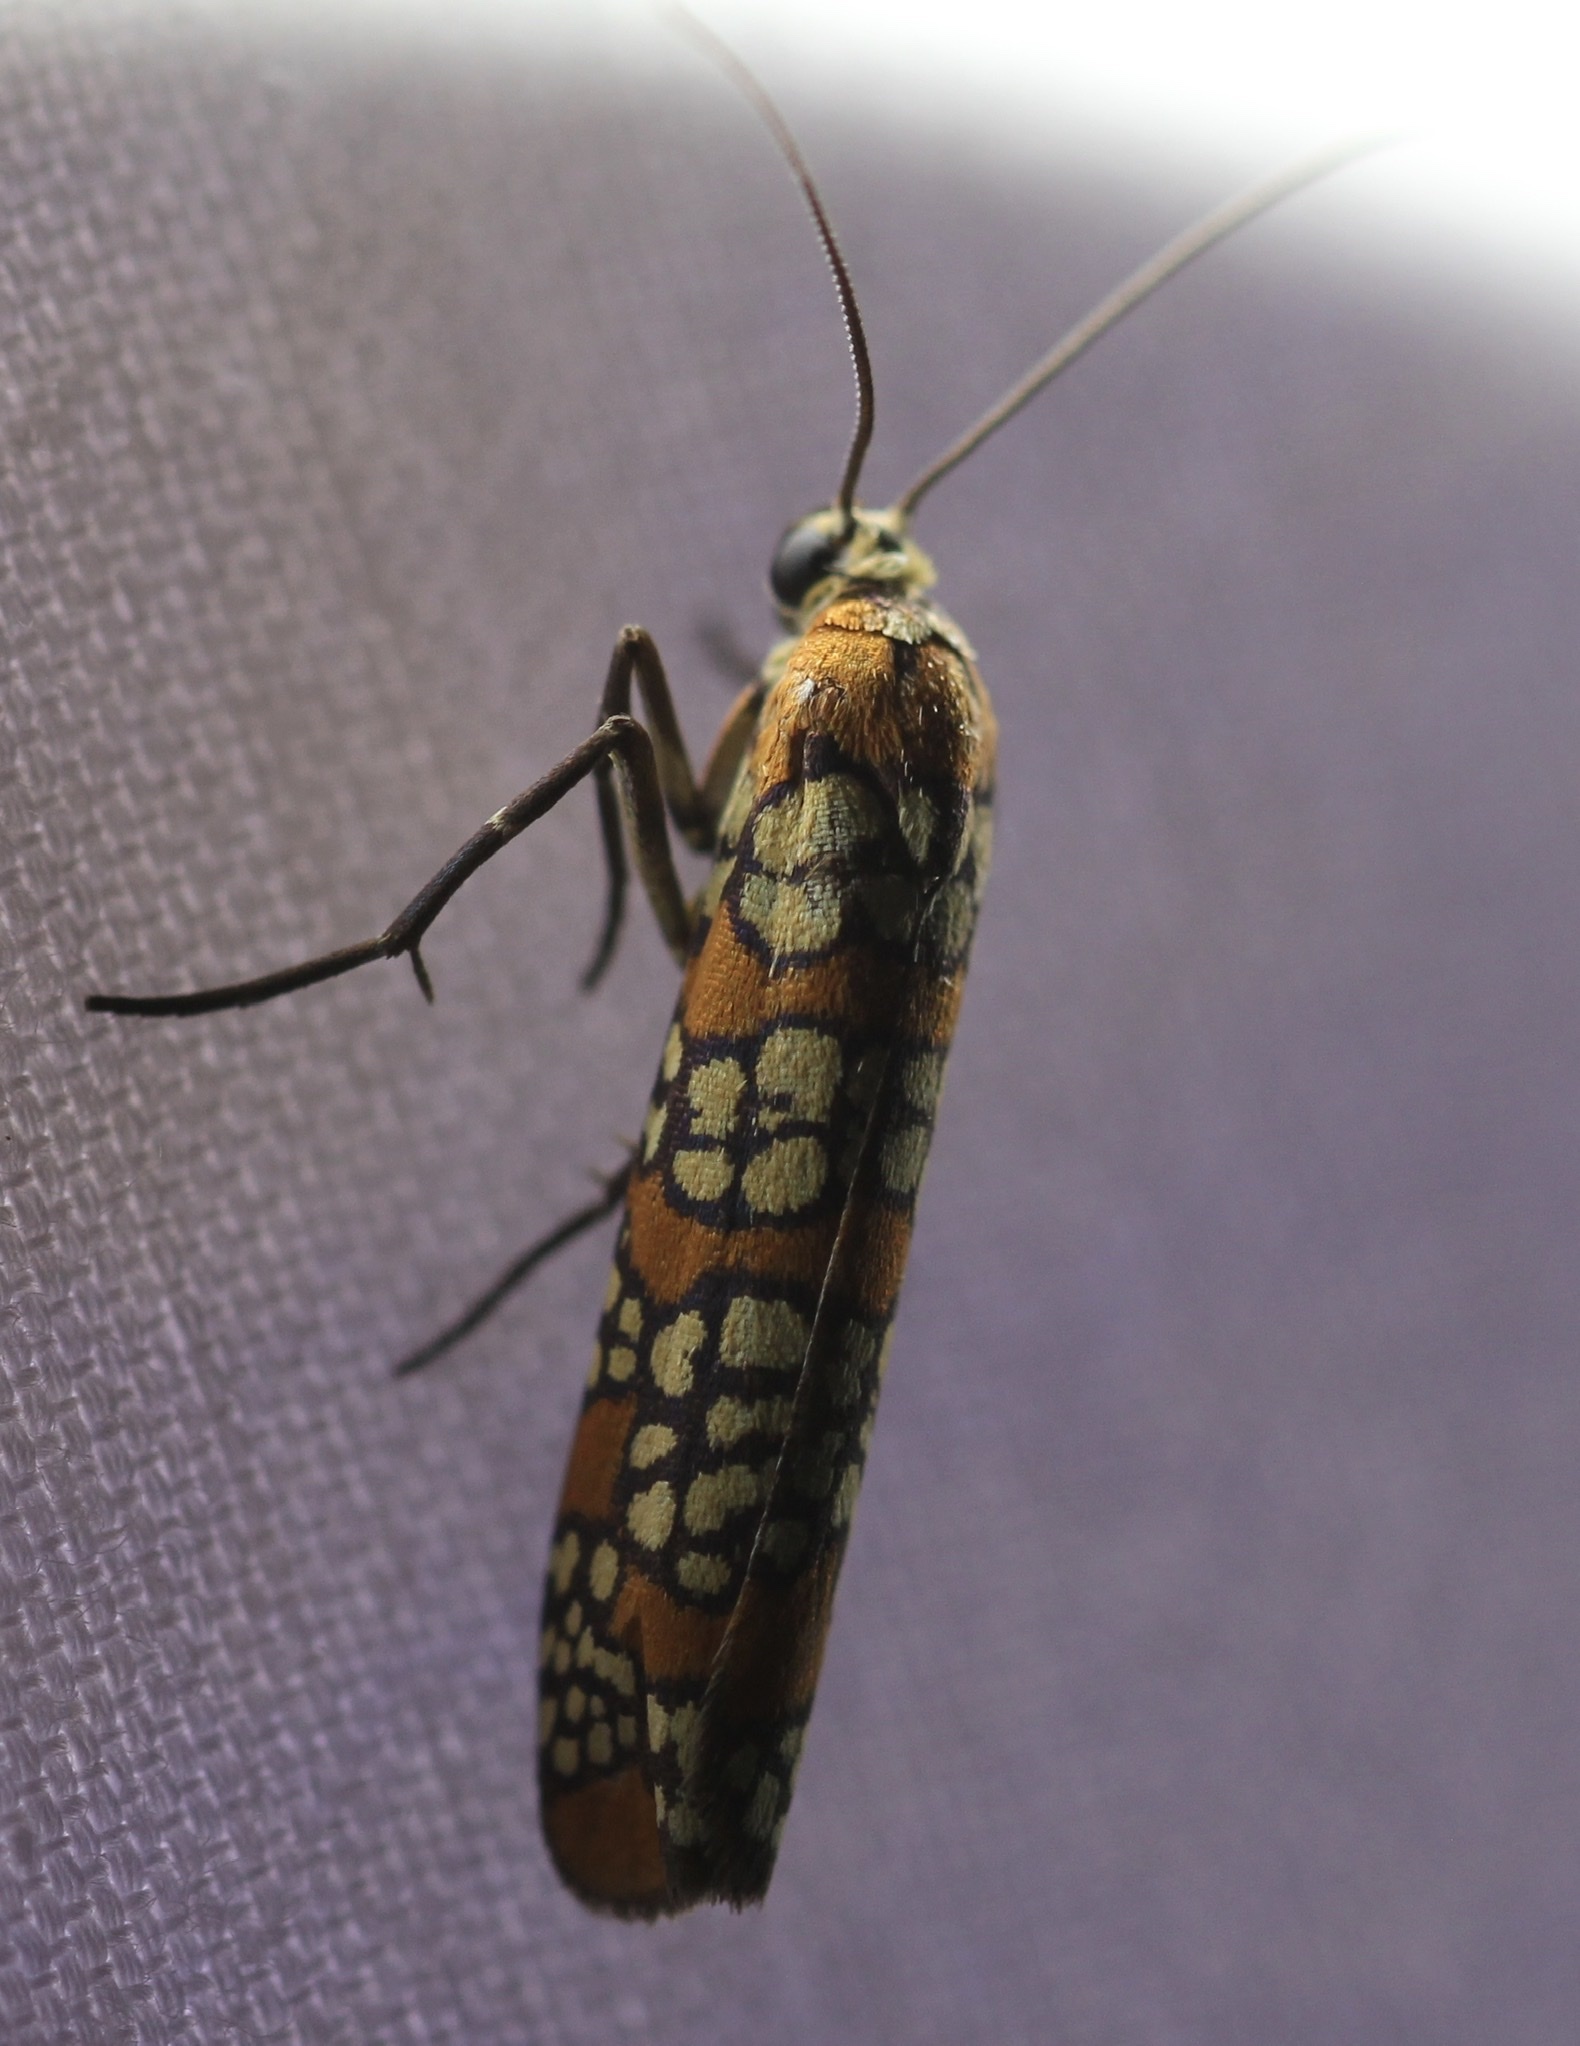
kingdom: Animalia
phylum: Arthropoda
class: Insecta
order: Lepidoptera
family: Attevidae
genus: Atteva
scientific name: Atteva punctella
